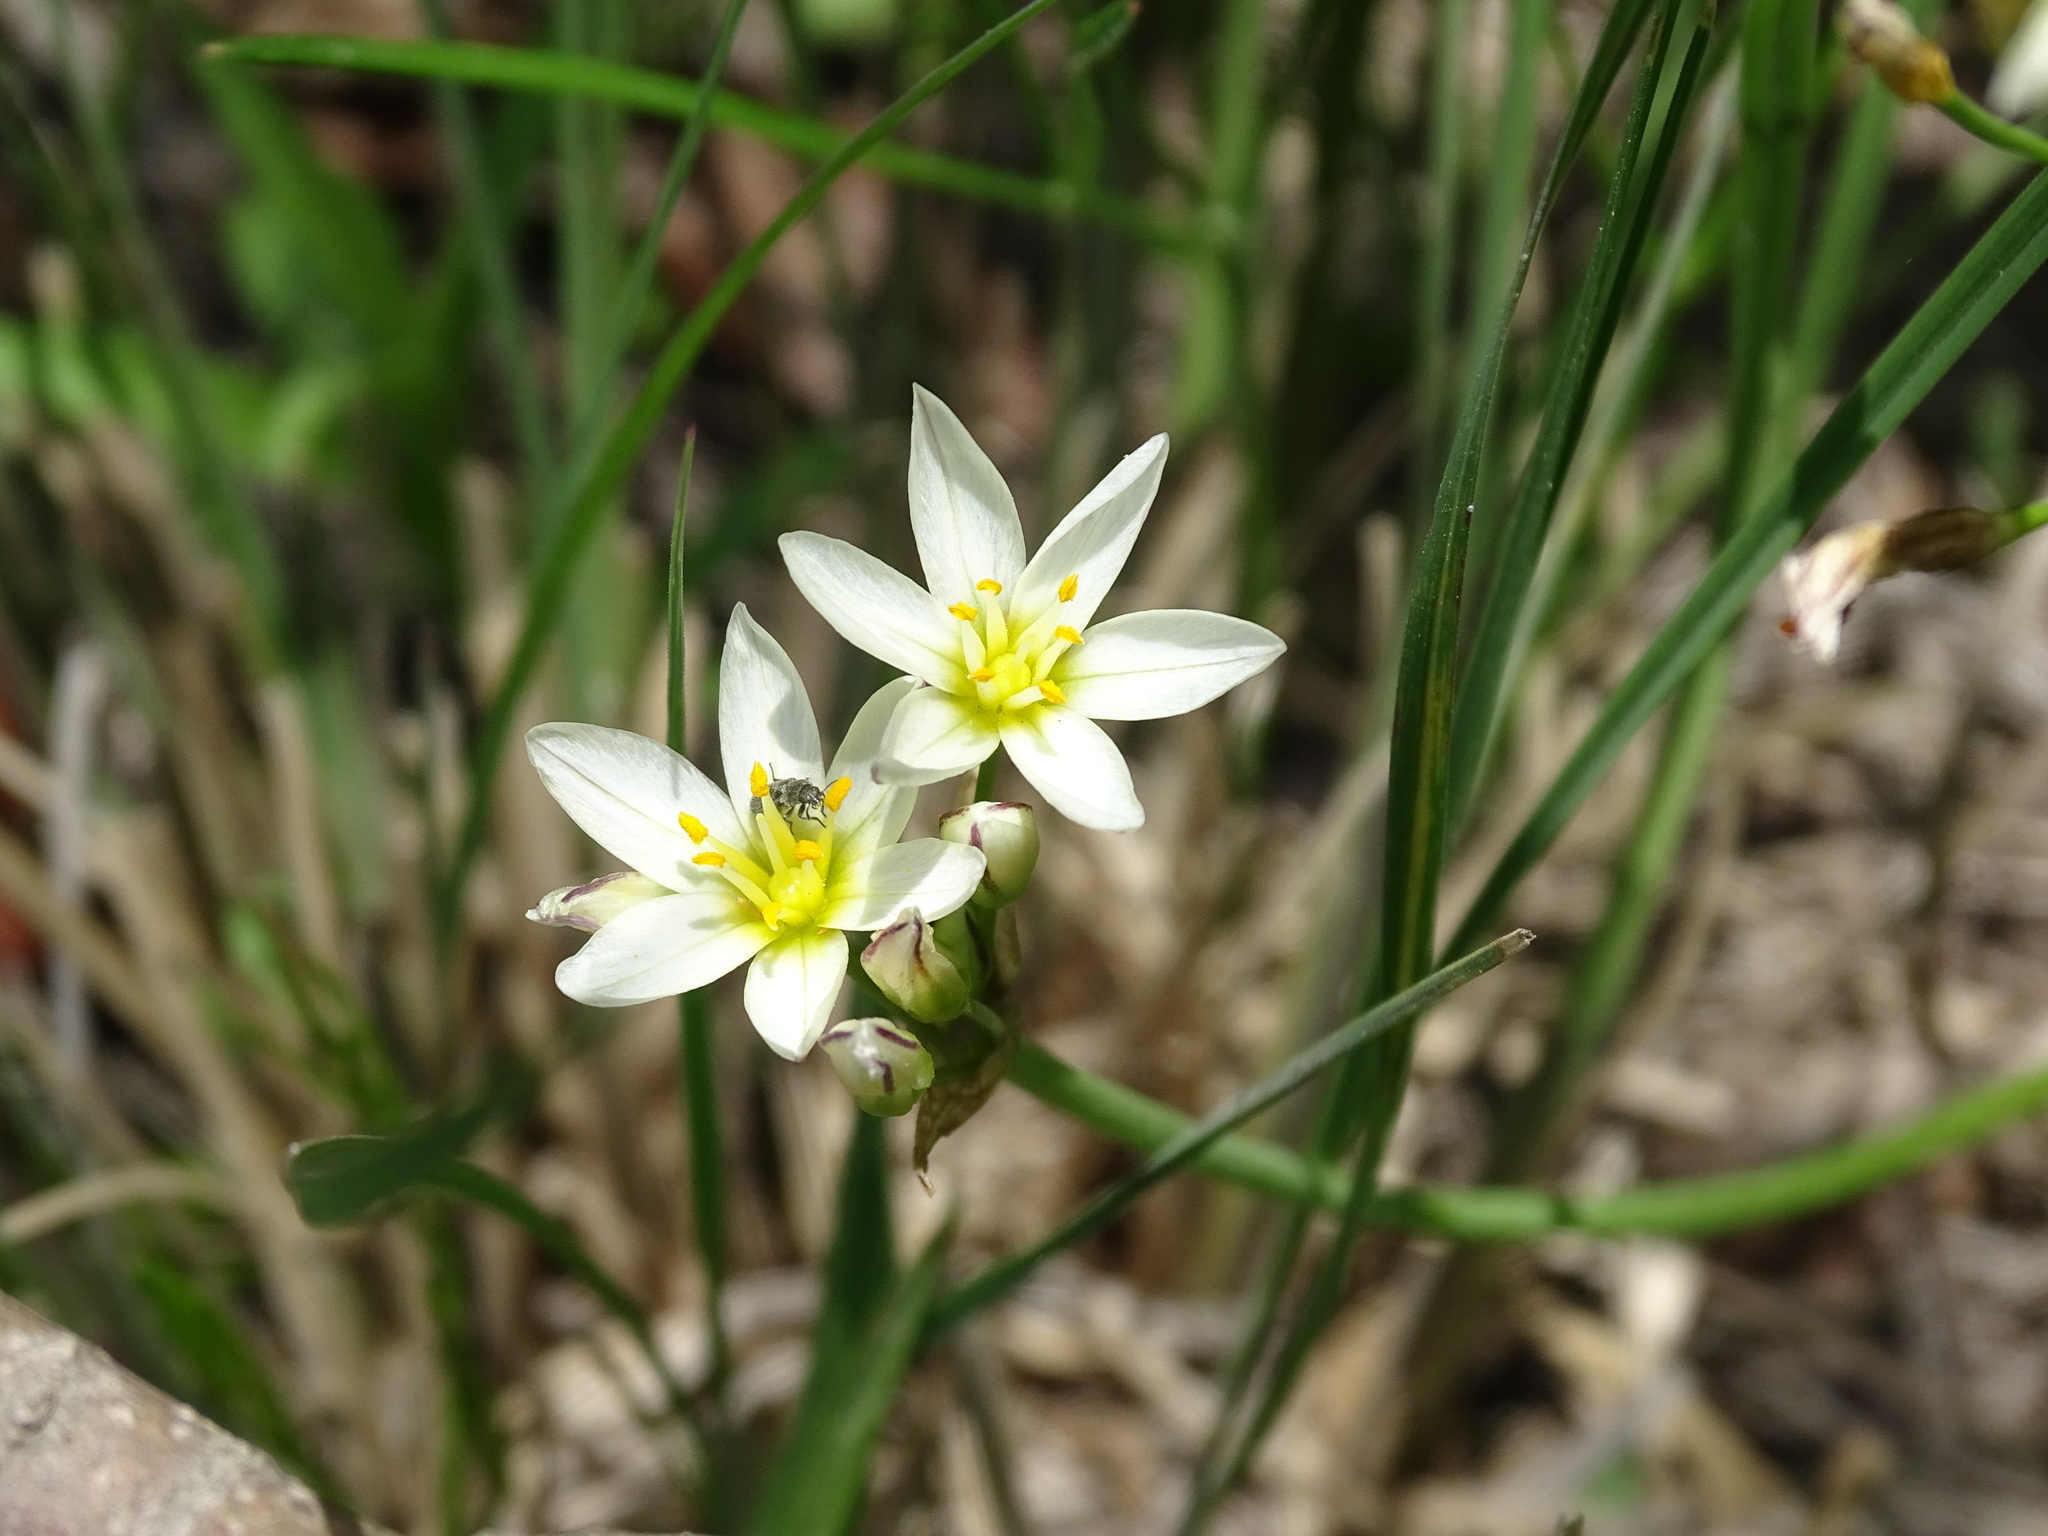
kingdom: Plantae
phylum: Tracheophyta
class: Liliopsida
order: Asparagales
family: Amaryllidaceae
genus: Nothoscordum
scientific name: Nothoscordum bivalve
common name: Crow-poison
